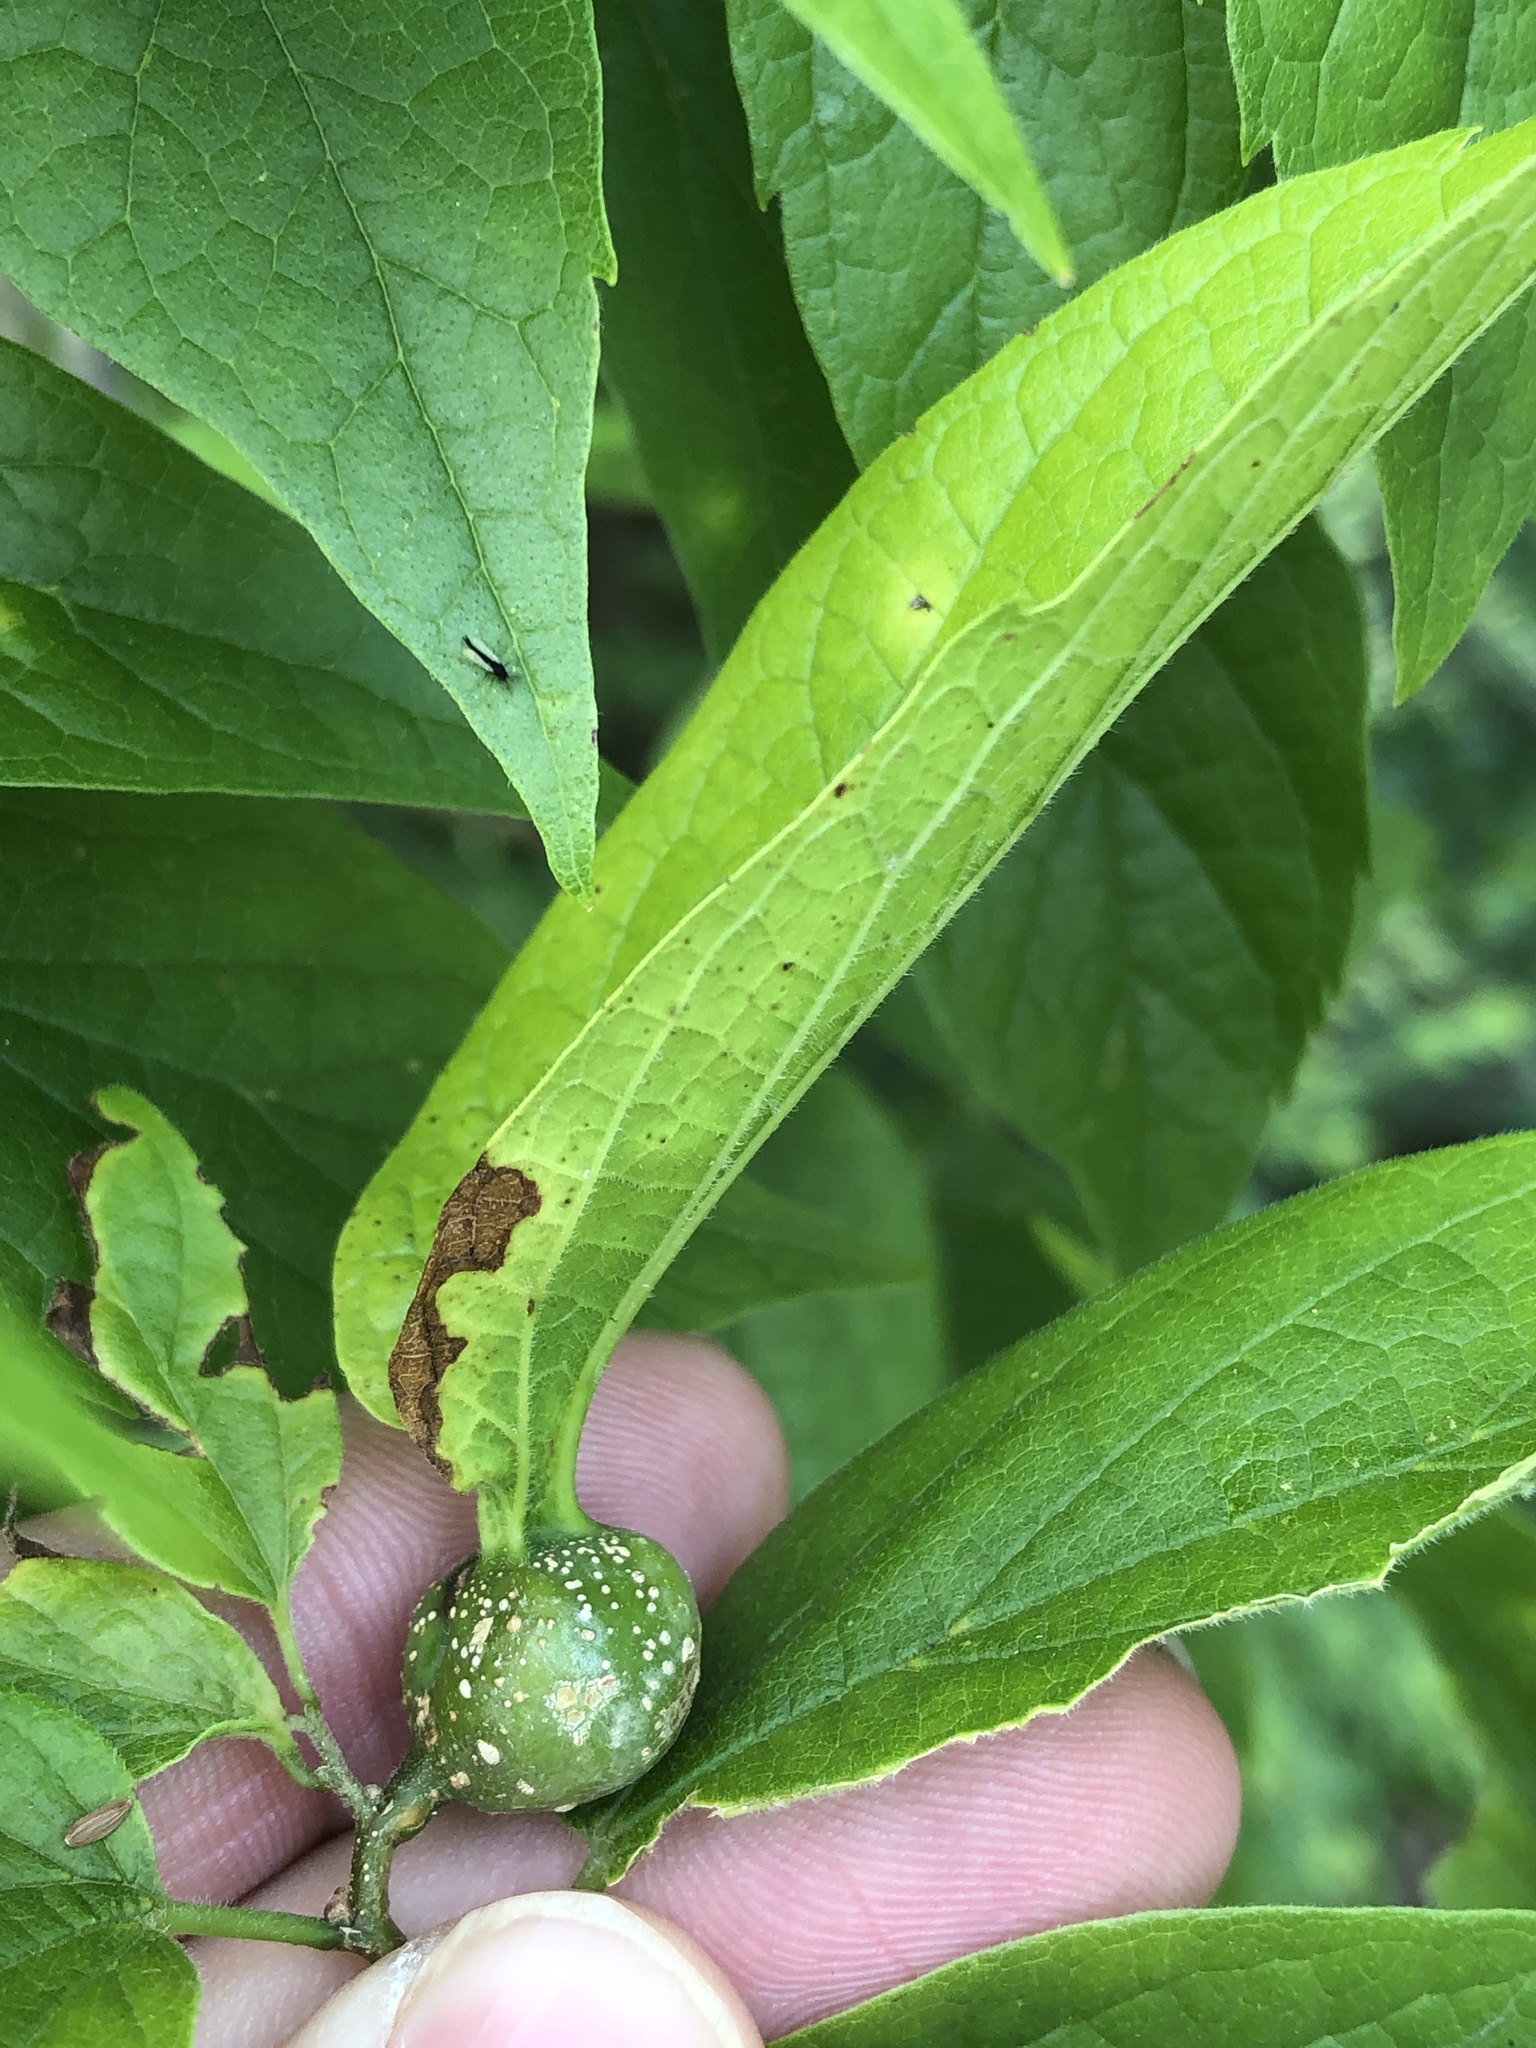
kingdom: Animalia
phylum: Arthropoda
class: Insecta
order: Hemiptera
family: Aphalaridae
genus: Pachypsylla
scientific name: Pachypsylla venusta
